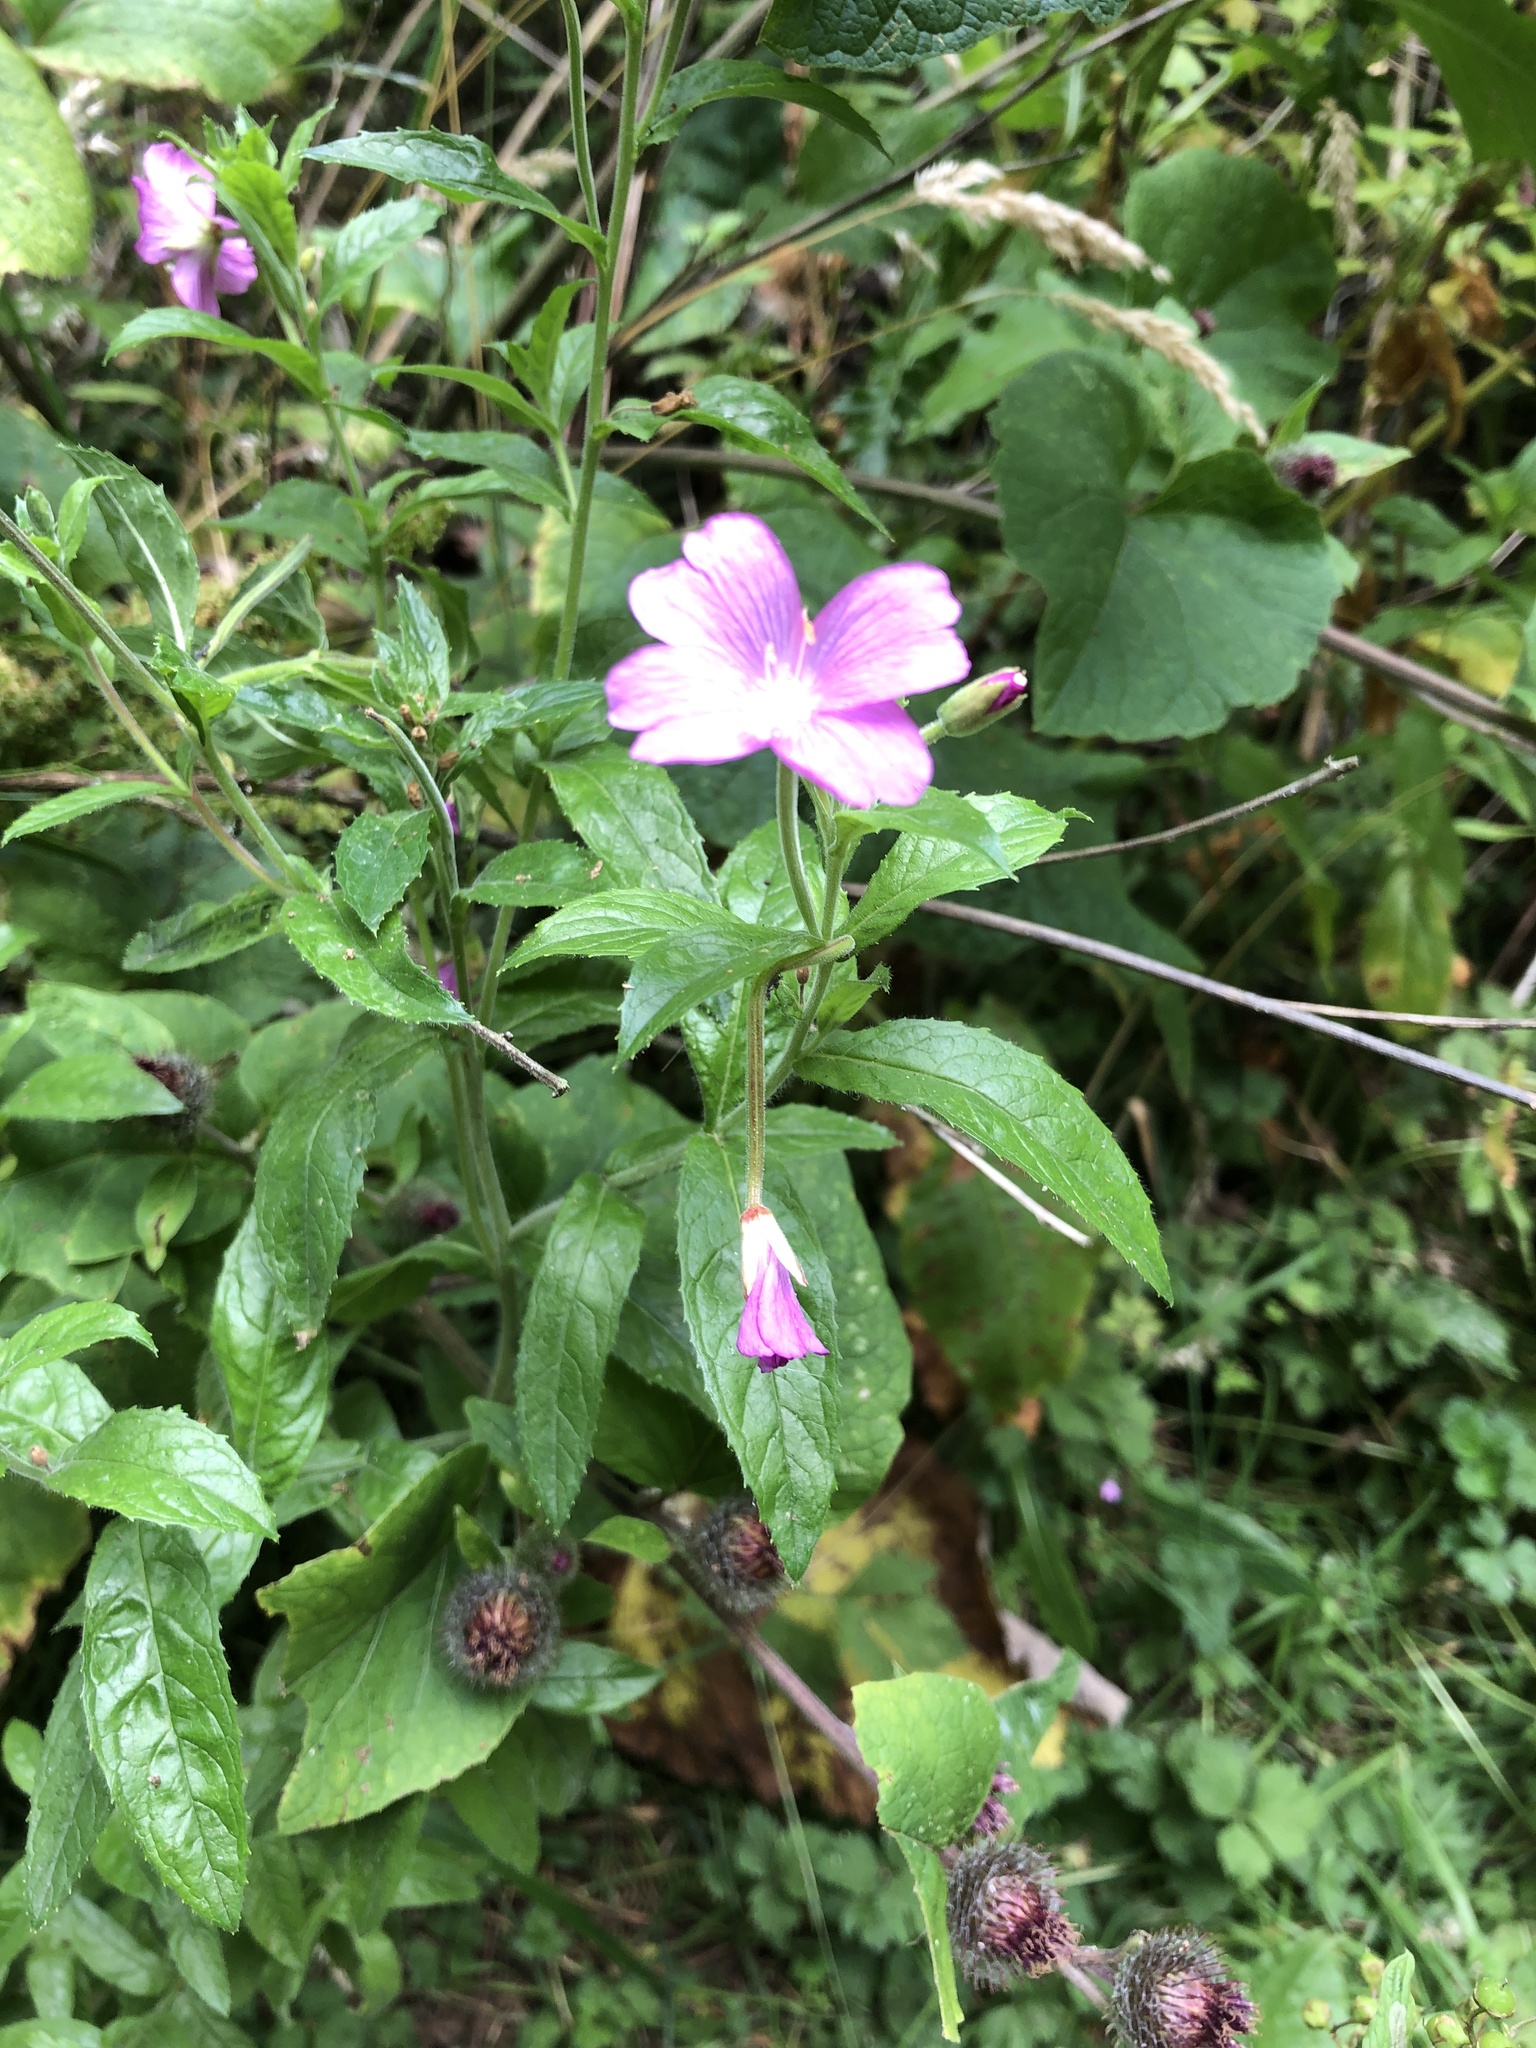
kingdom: Plantae
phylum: Tracheophyta
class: Magnoliopsida
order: Myrtales
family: Onagraceae
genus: Epilobium
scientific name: Epilobium hirsutum
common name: Great willowherb
